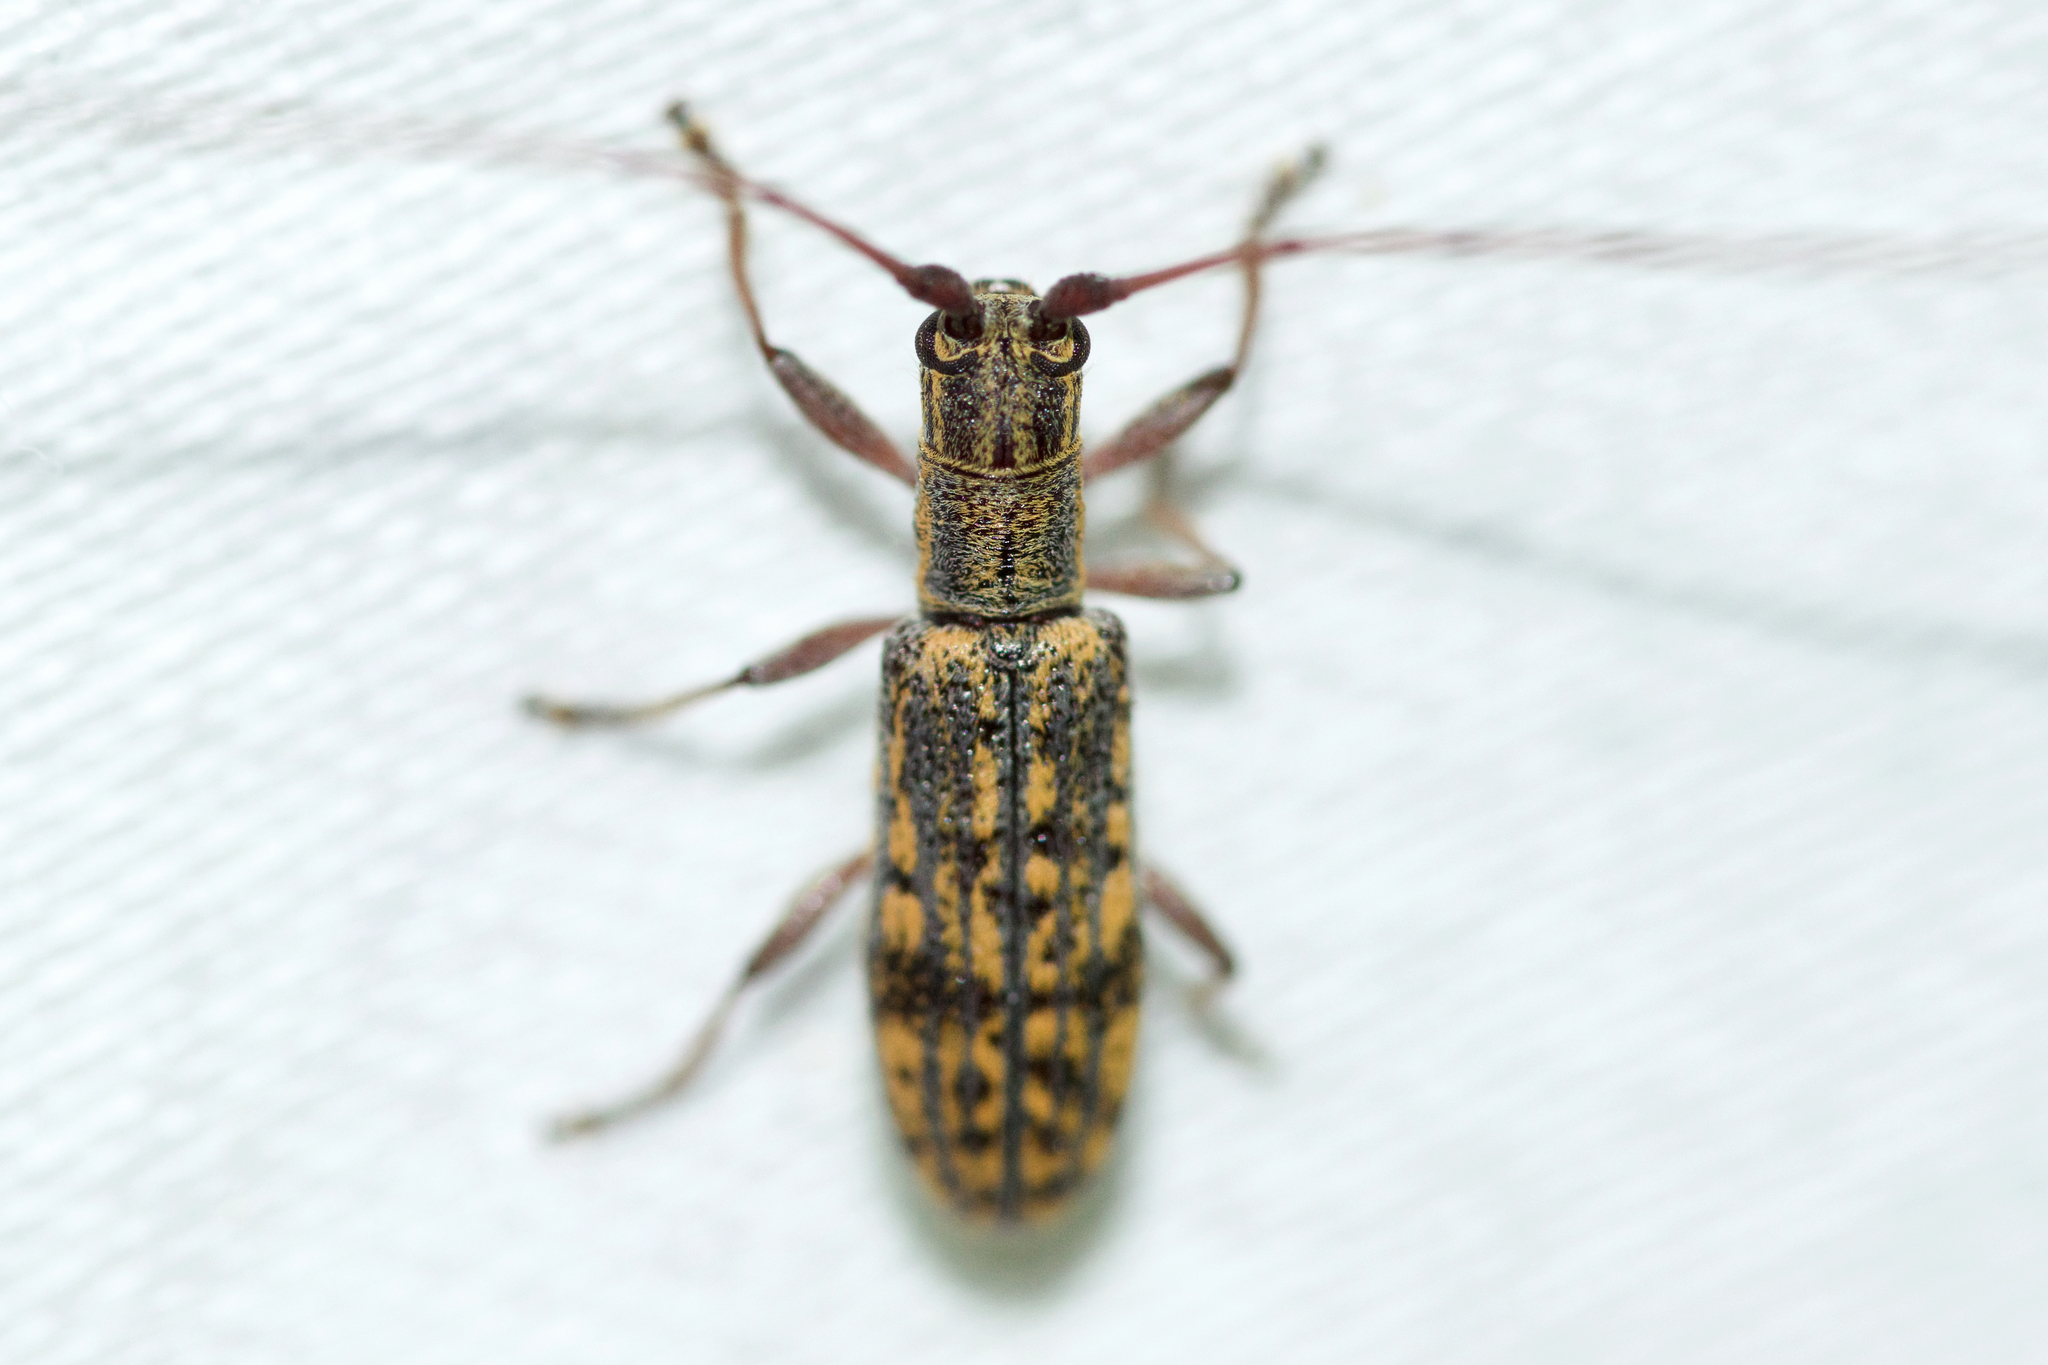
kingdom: Animalia
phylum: Arthropoda
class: Insecta
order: Coleoptera
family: Cerambycidae
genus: Dorcaschema
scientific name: Dorcaschema alternatum
